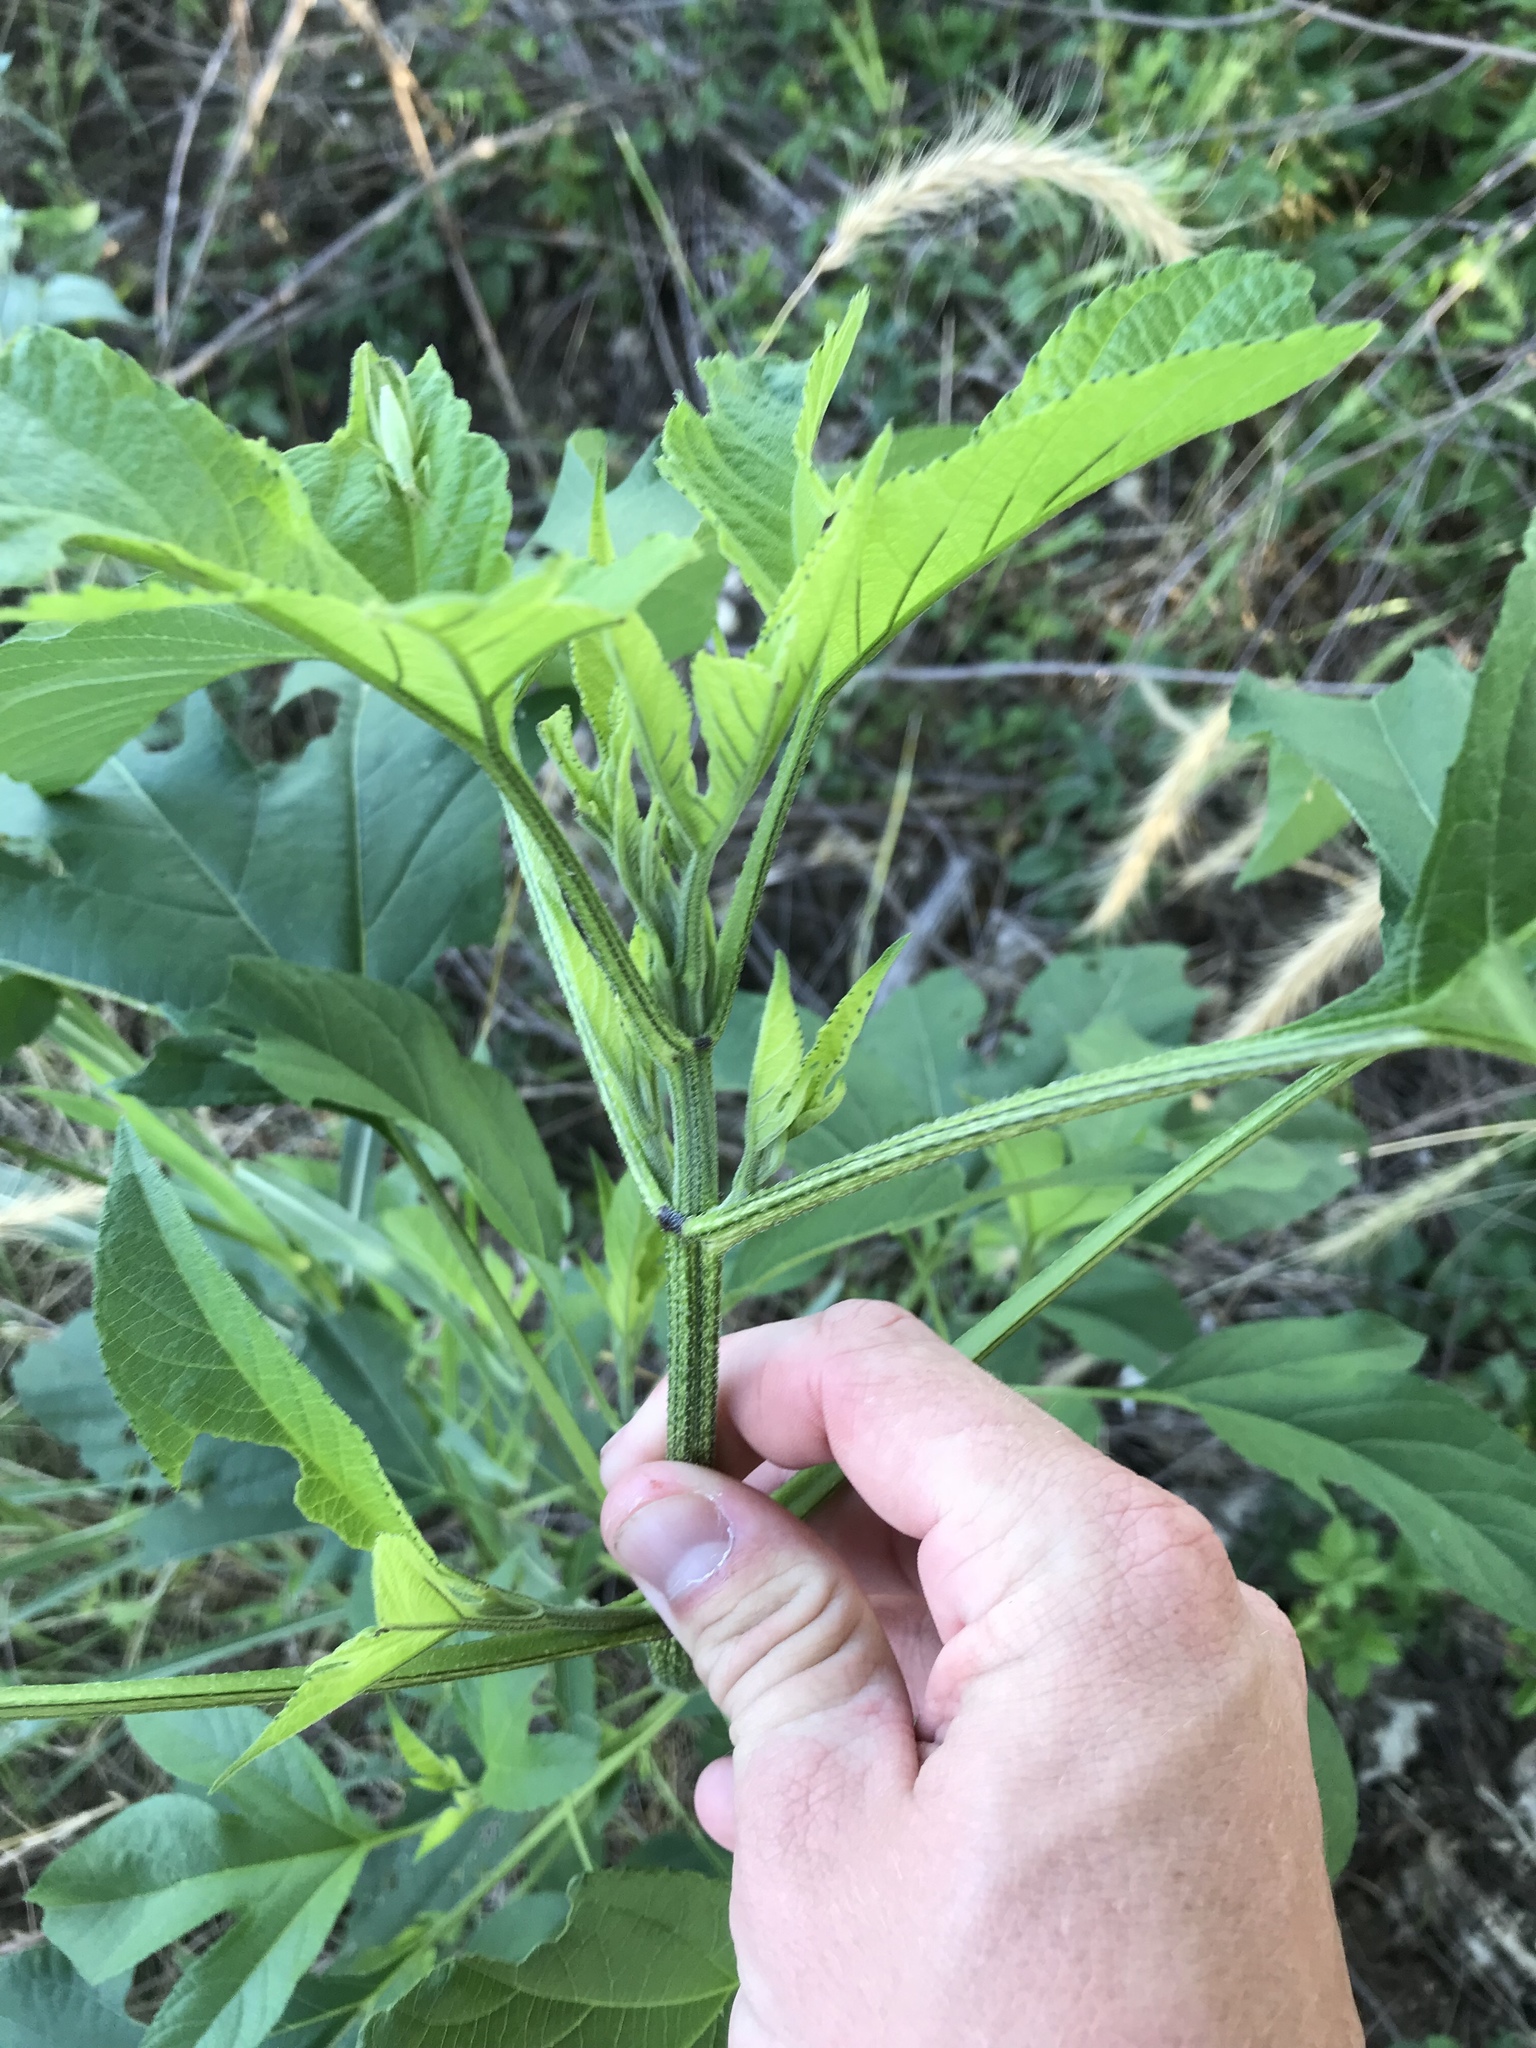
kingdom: Plantae
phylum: Tracheophyta
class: Magnoliopsida
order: Asterales
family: Asteraceae
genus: Ambrosia
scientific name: Ambrosia trifida
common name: Giant ragweed
